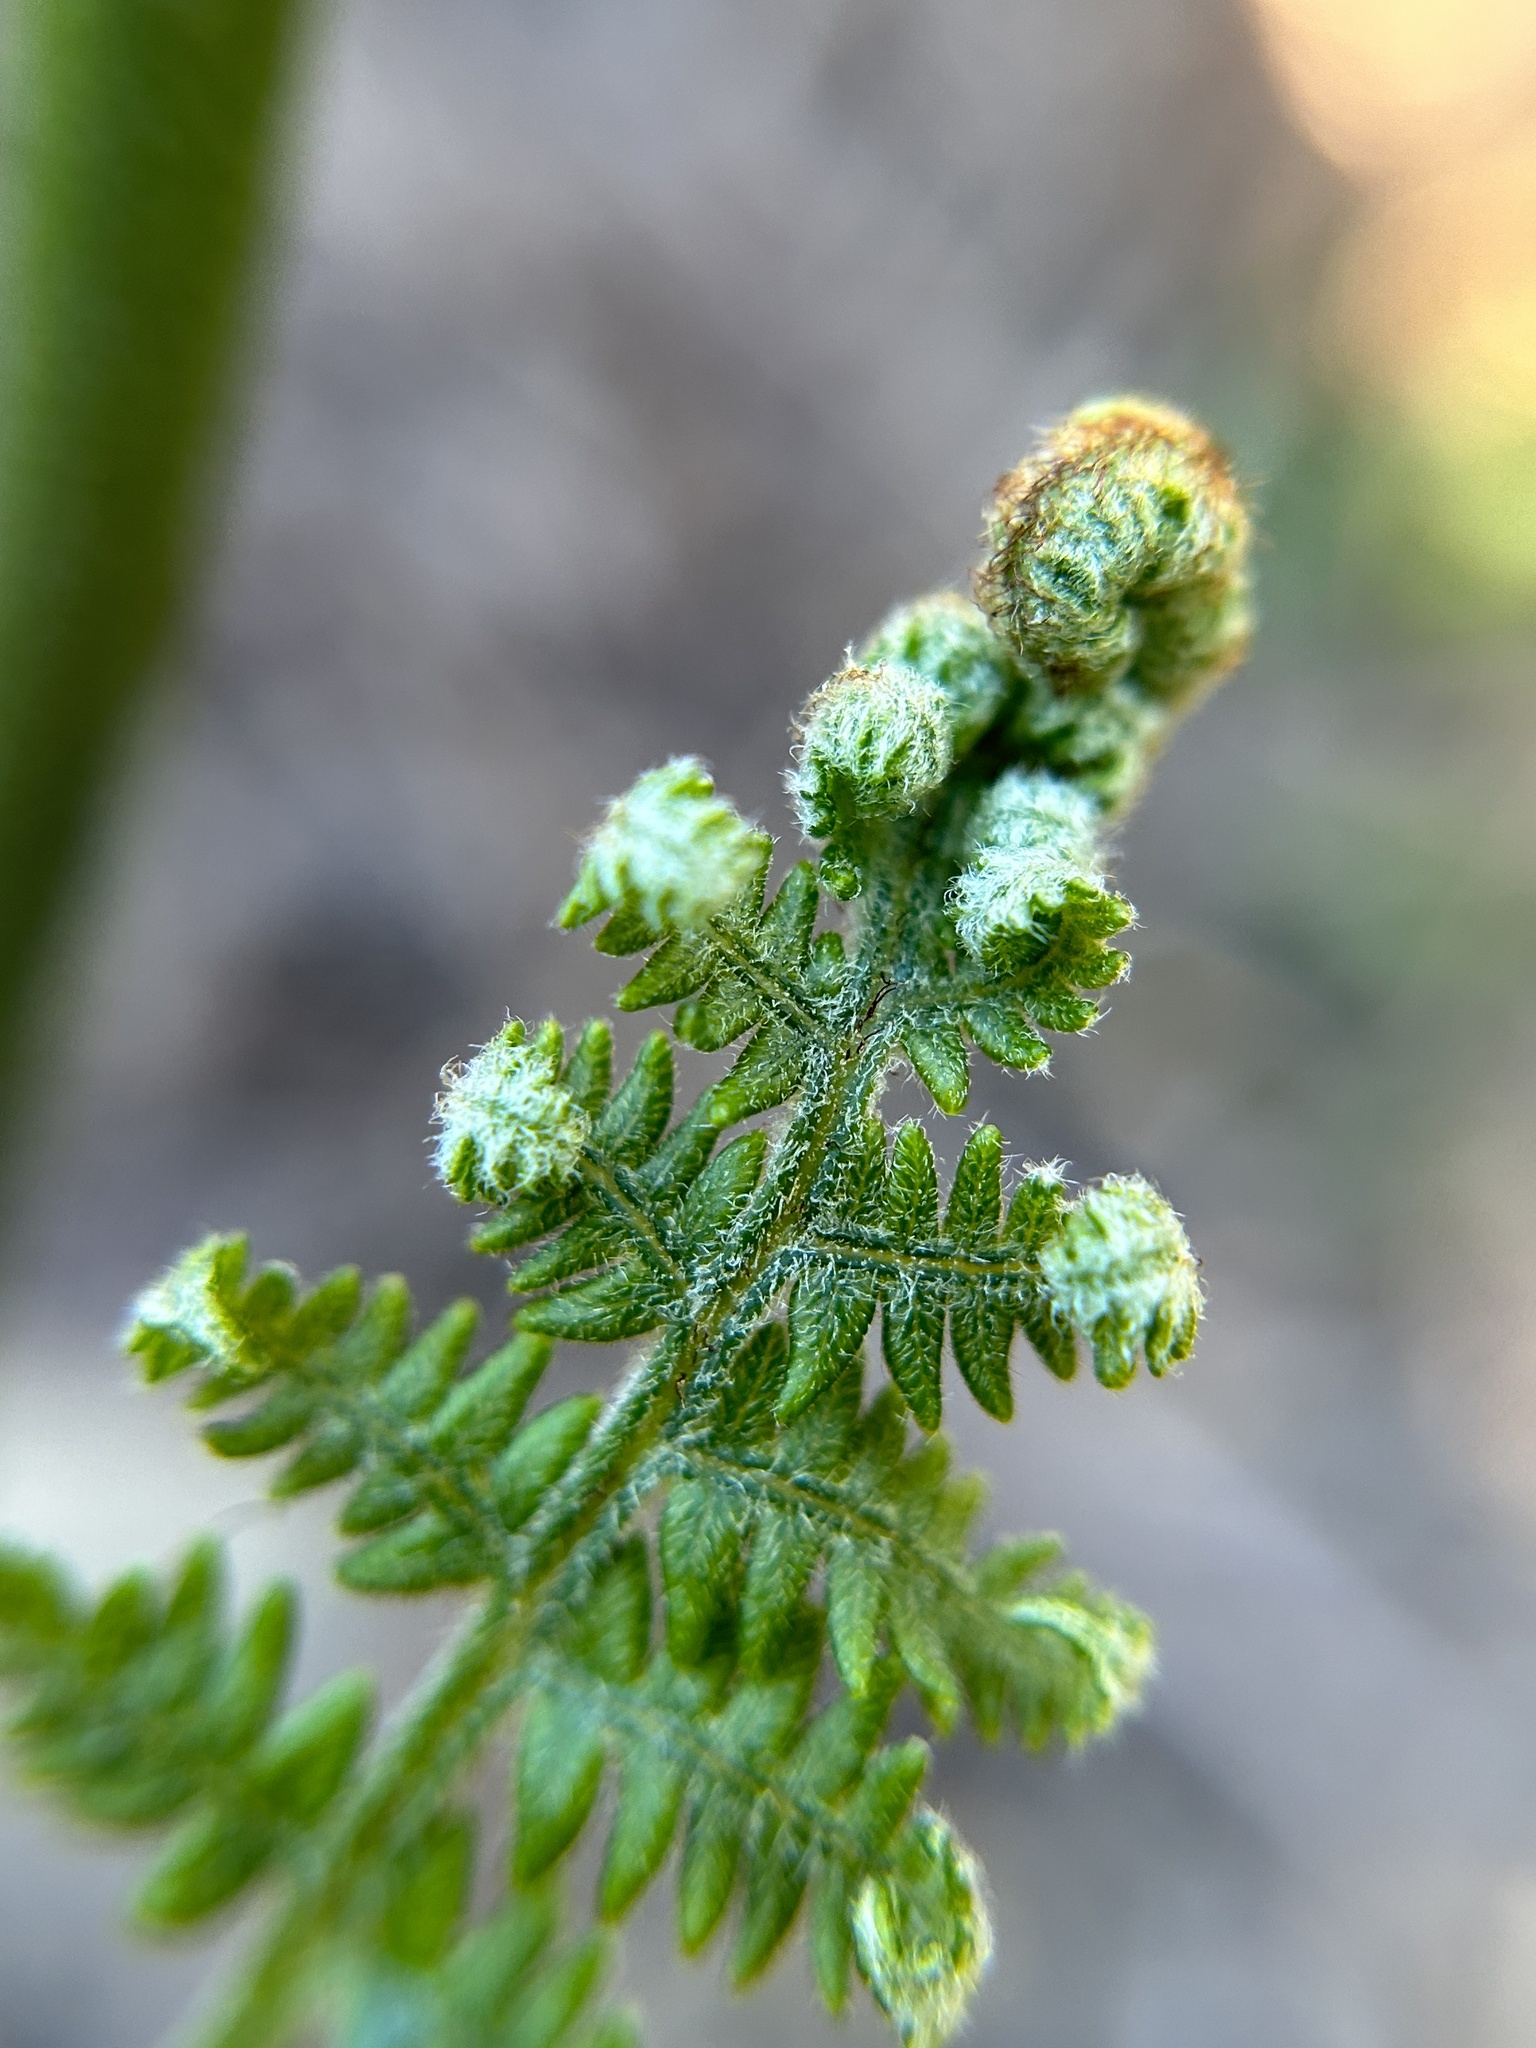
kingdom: Plantae
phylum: Tracheophyta
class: Polypodiopsida
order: Polypodiales
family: Dennstaedtiaceae
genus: Pteridium
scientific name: Pteridium aquilinum
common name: Bracken
